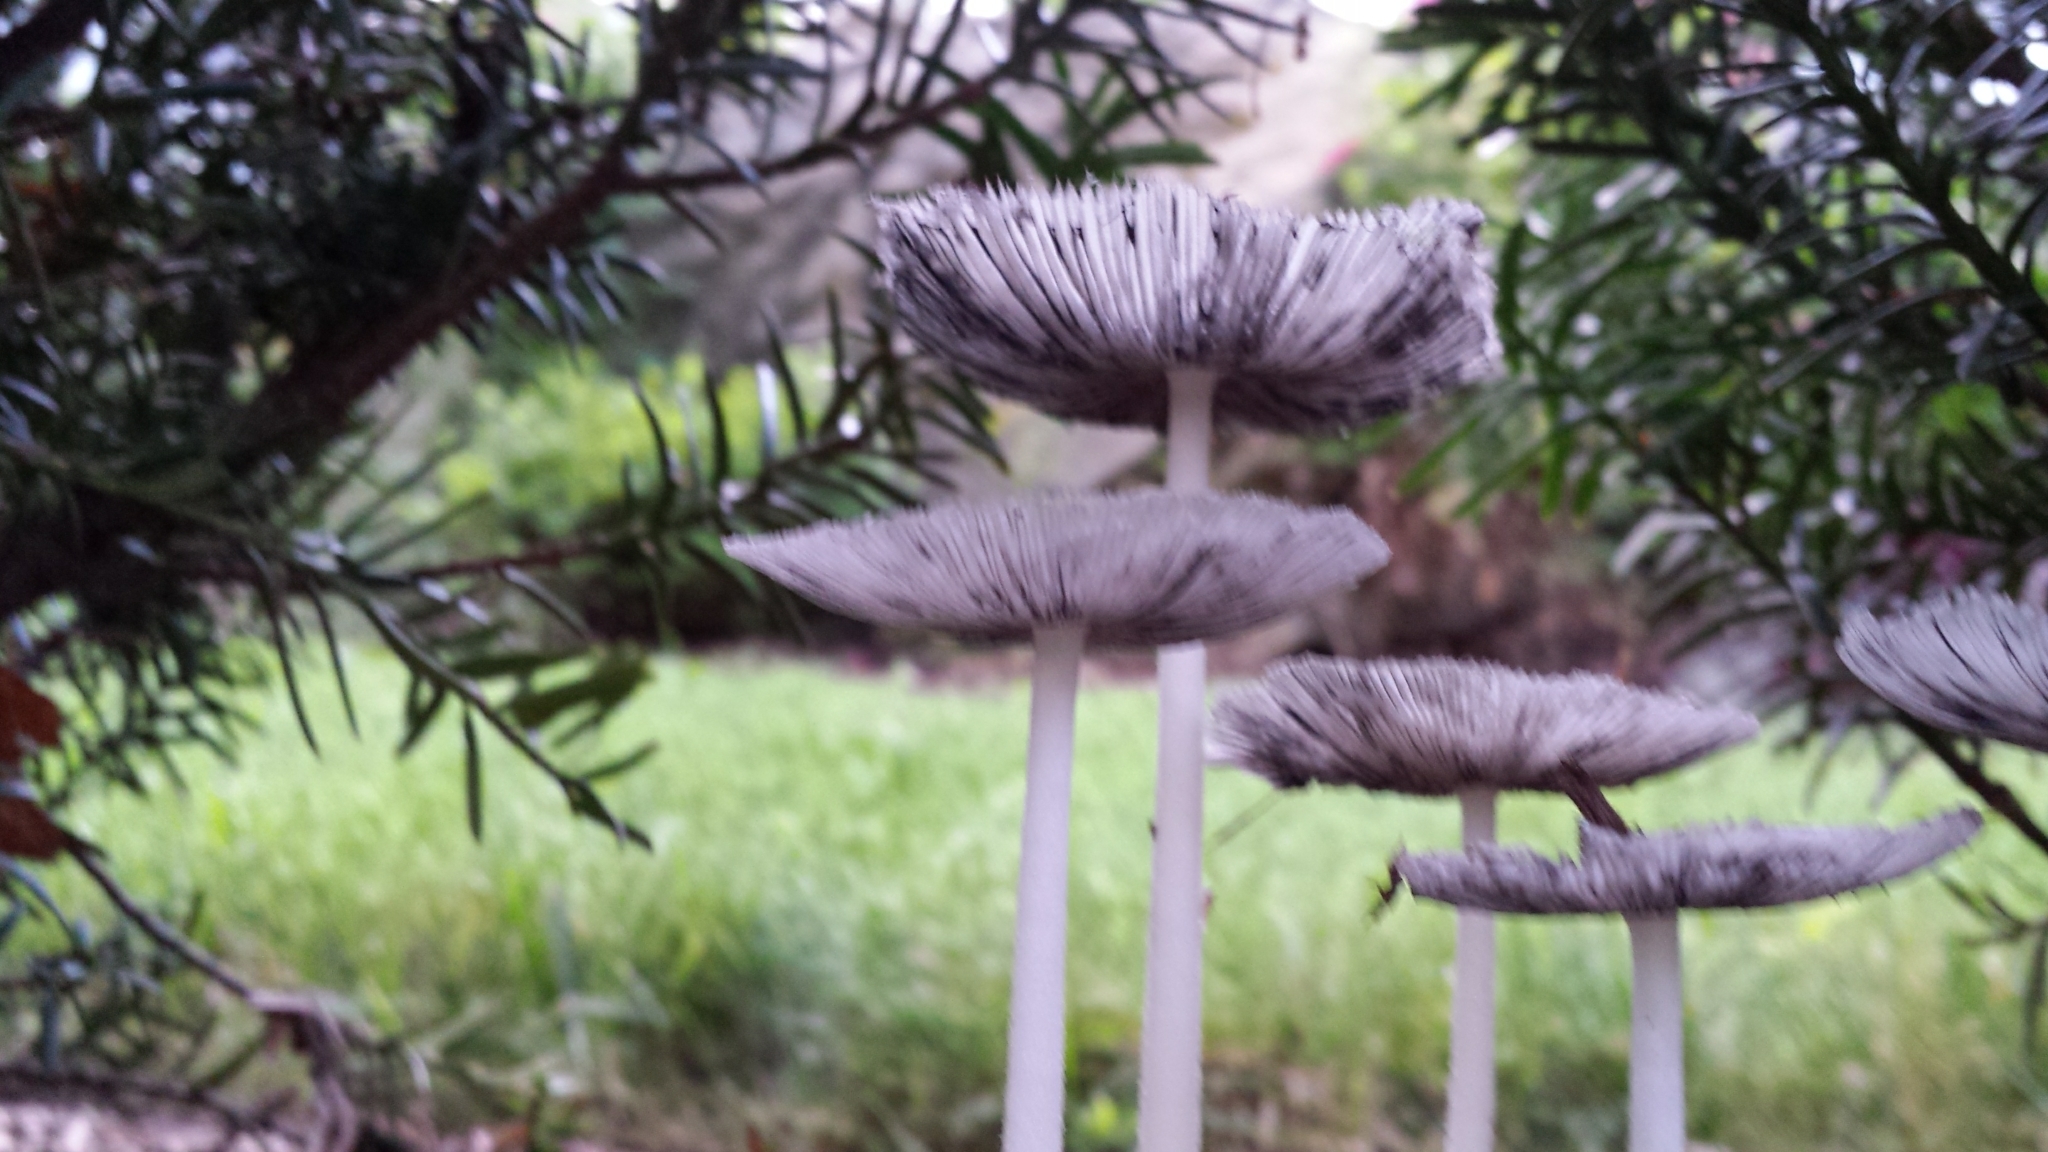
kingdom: Fungi
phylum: Basidiomycota
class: Agaricomycetes
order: Agaricales
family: Psathyrellaceae
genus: Coprinopsis
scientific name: Coprinopsis lagopus
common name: Hare'sfoot inkcap
